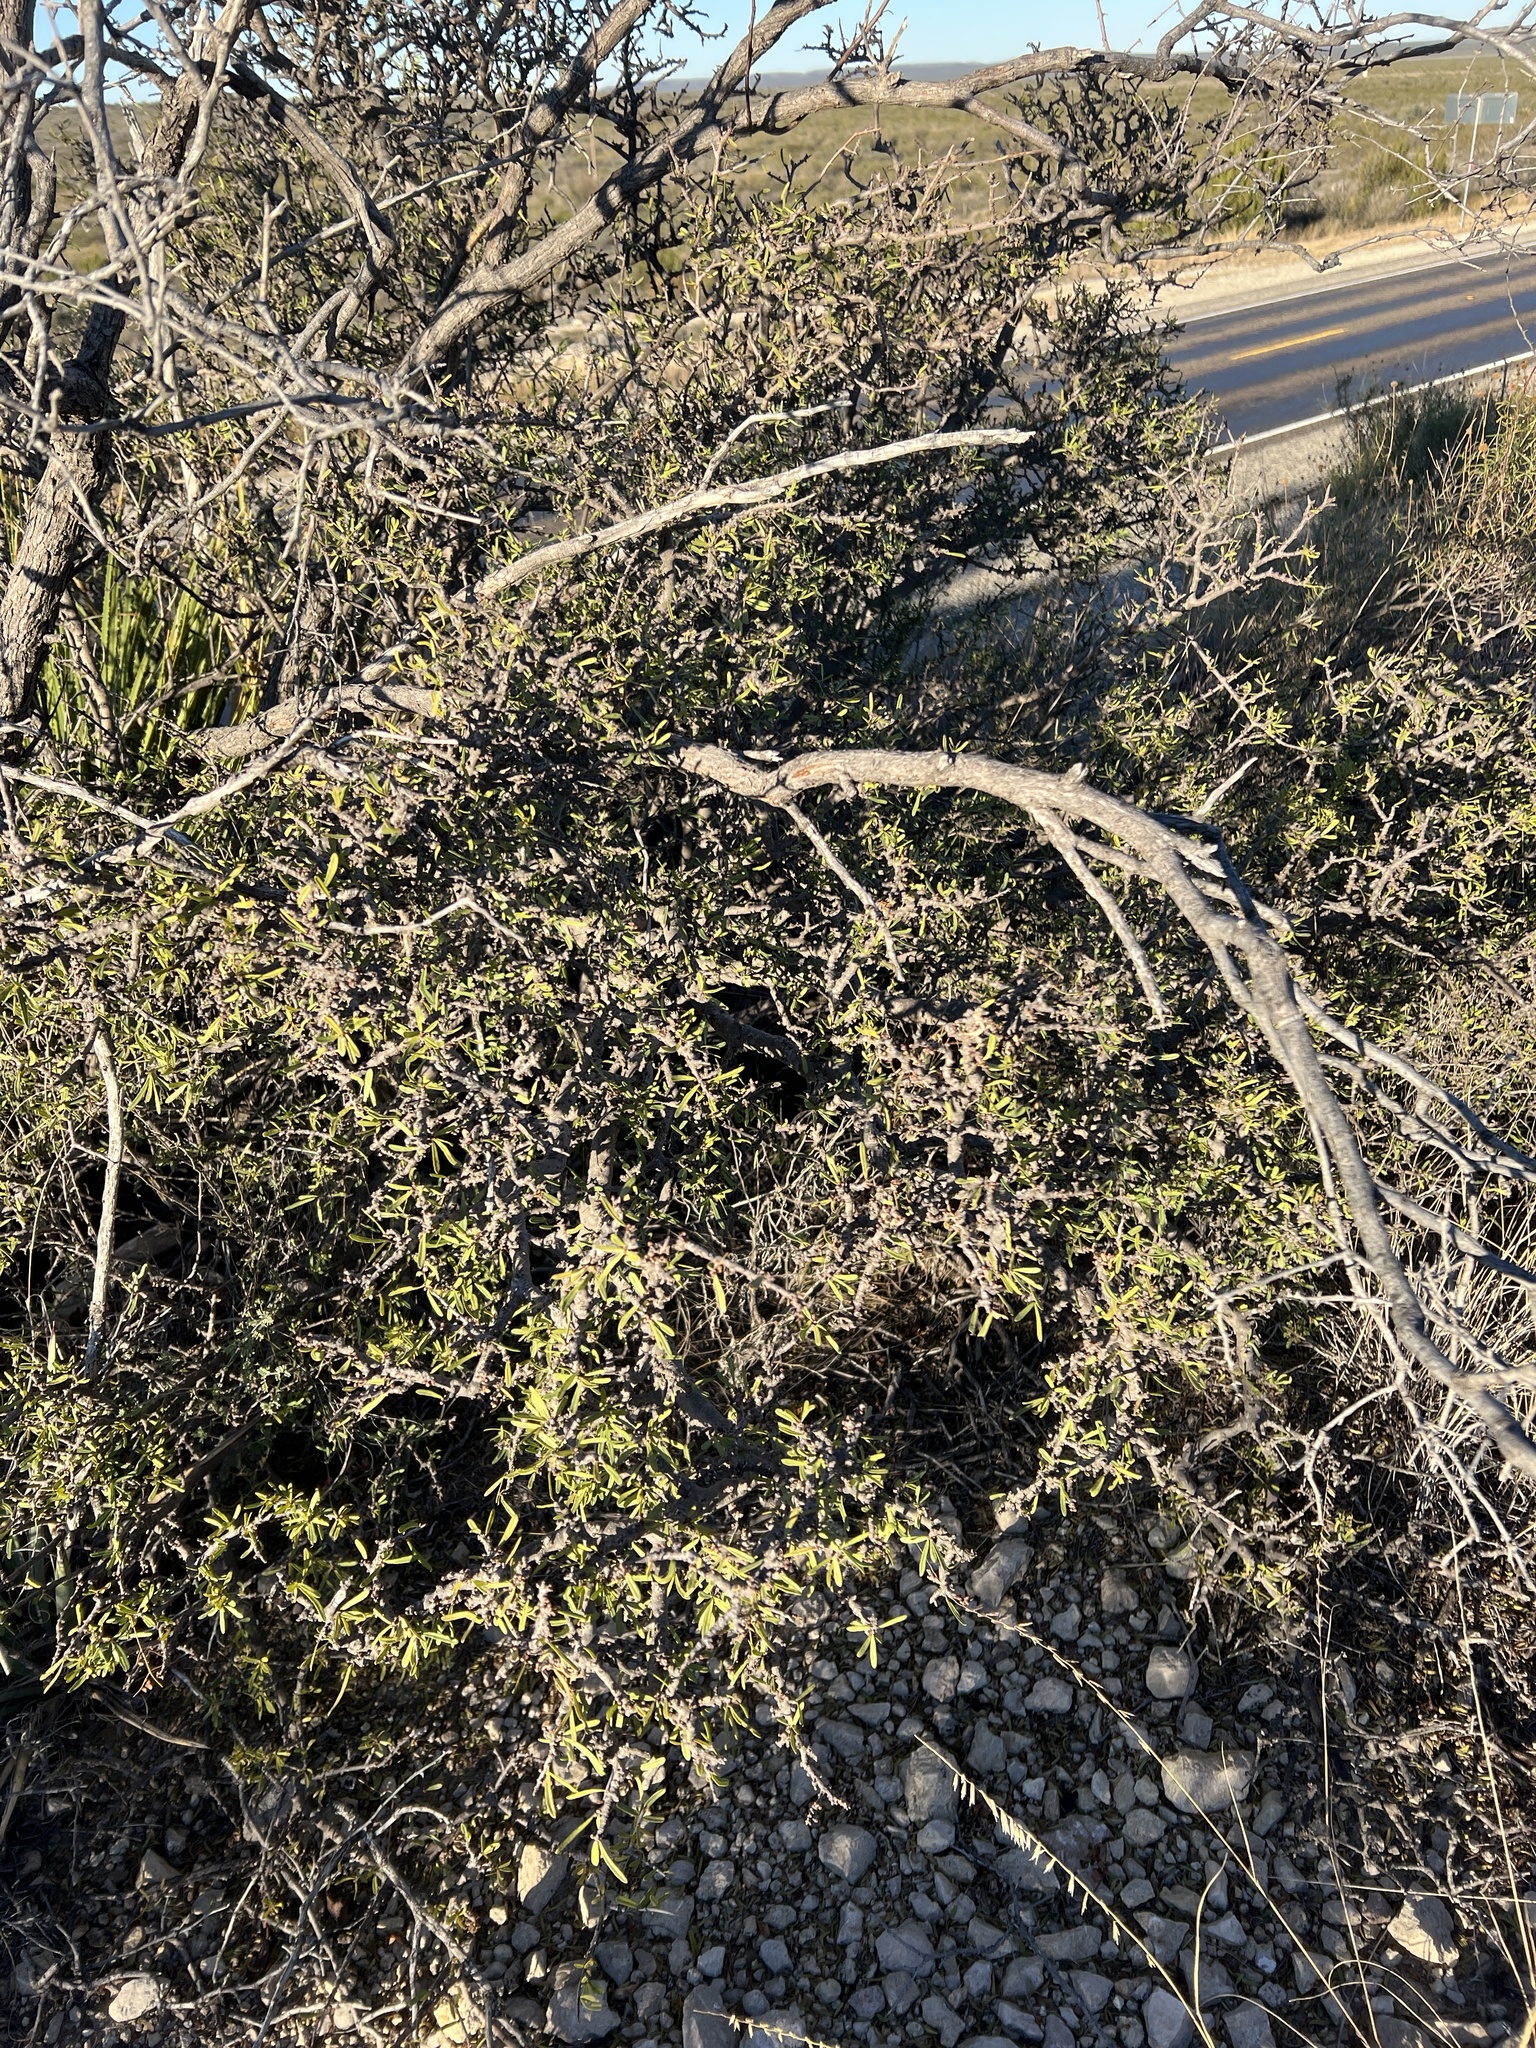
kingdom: Plantae
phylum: Tracheophyta
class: Magnoliopsida
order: Lamiales
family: Oleaceae
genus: Forestiera
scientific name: Forestiera angustifolia
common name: Elbowbush
